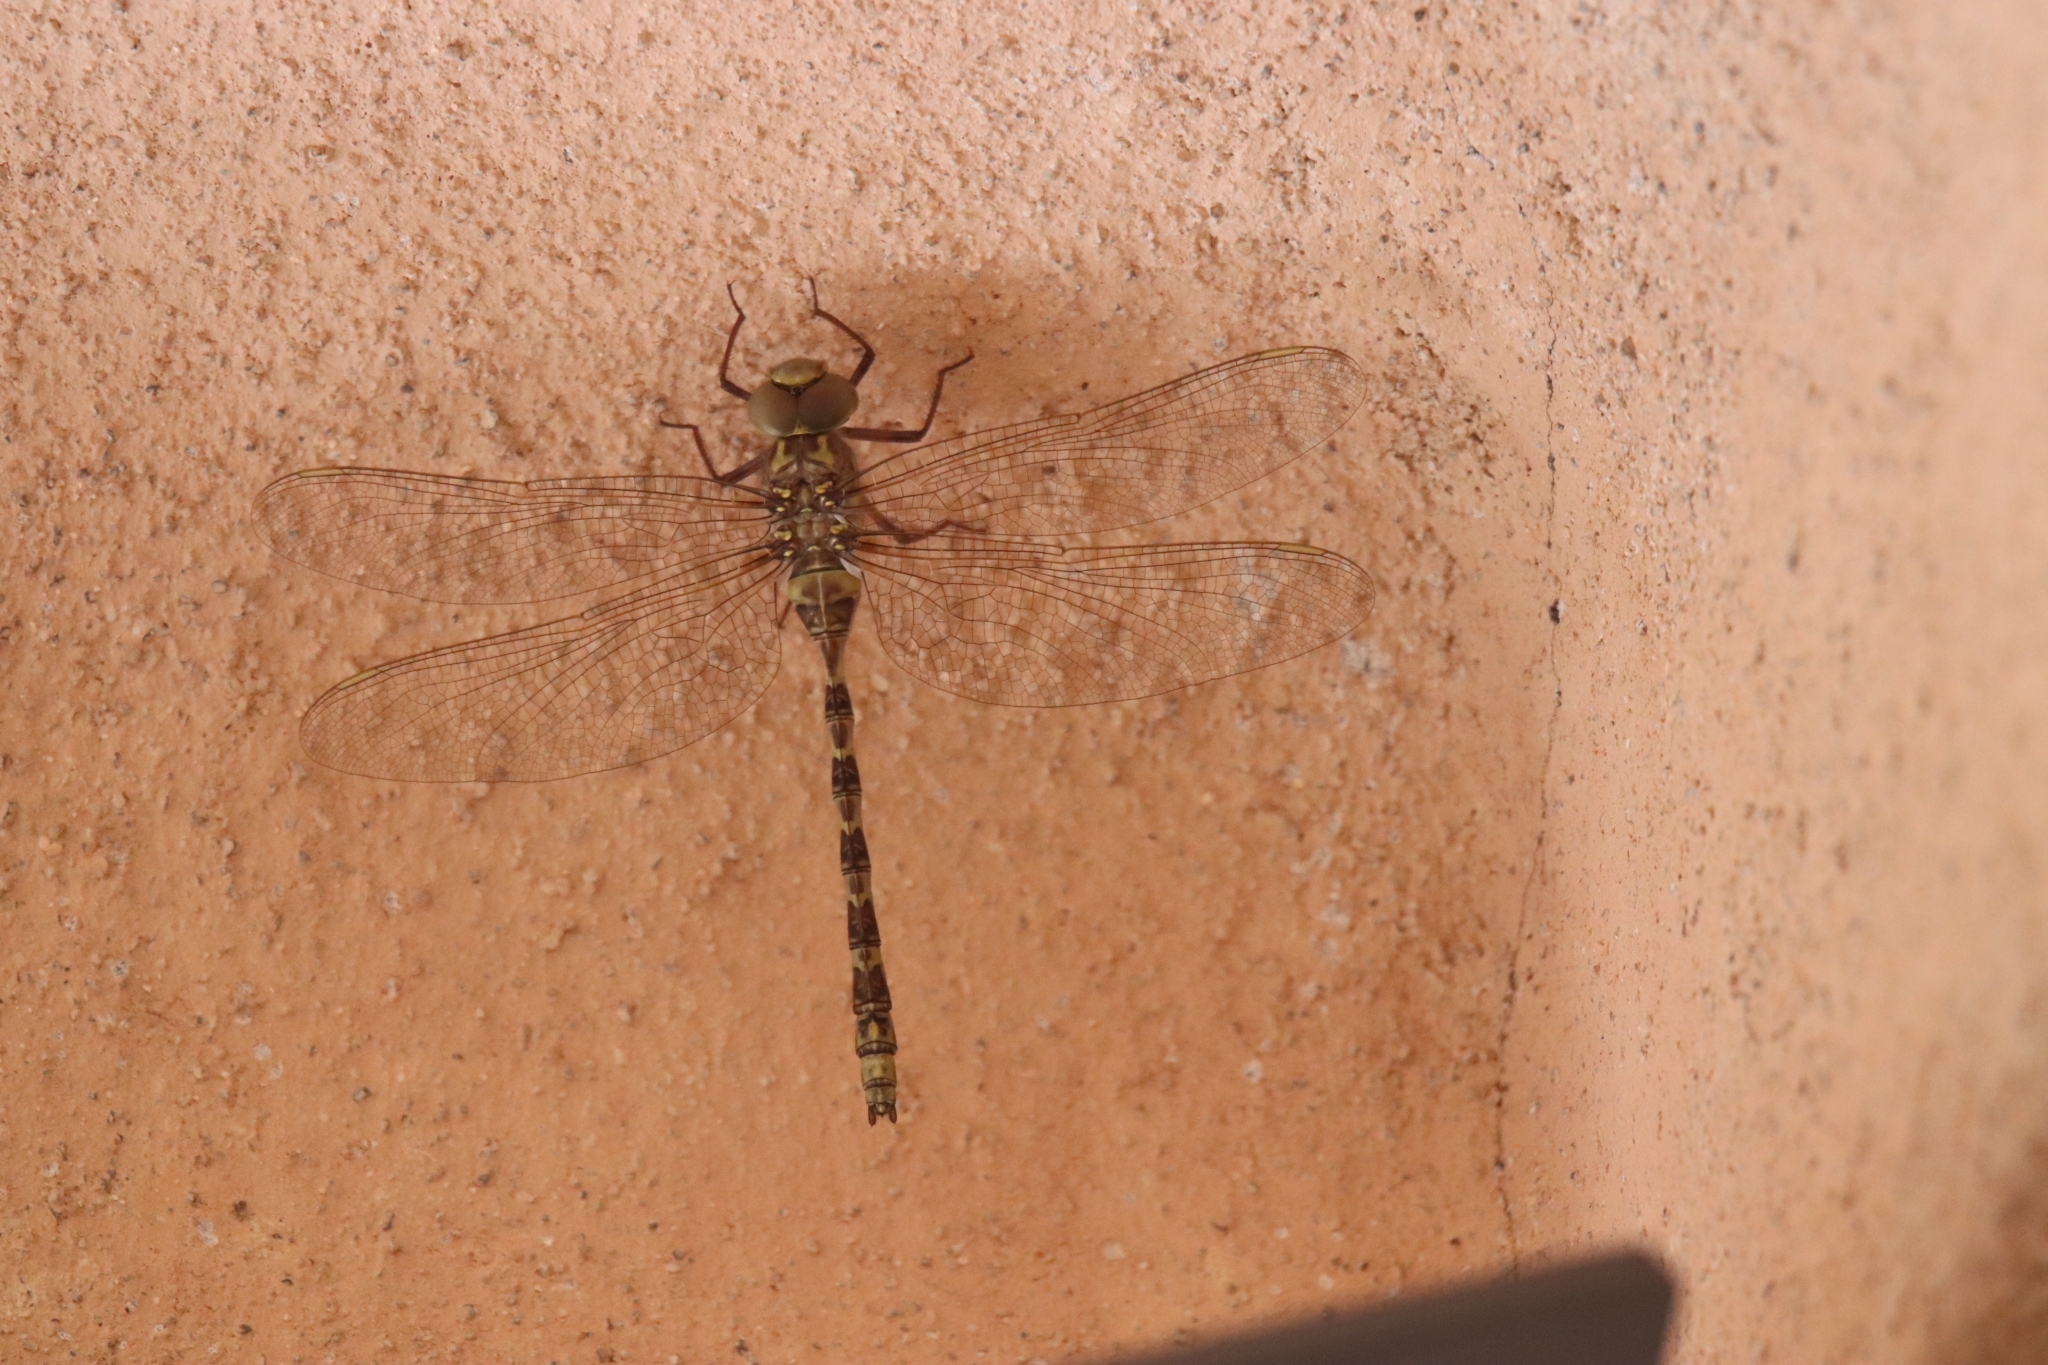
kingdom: Animalia
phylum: Arthropoda
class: Insecta
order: Odonata
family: Aeshnidae
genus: Boyeria
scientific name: Boyeria irene
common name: Western spectre
